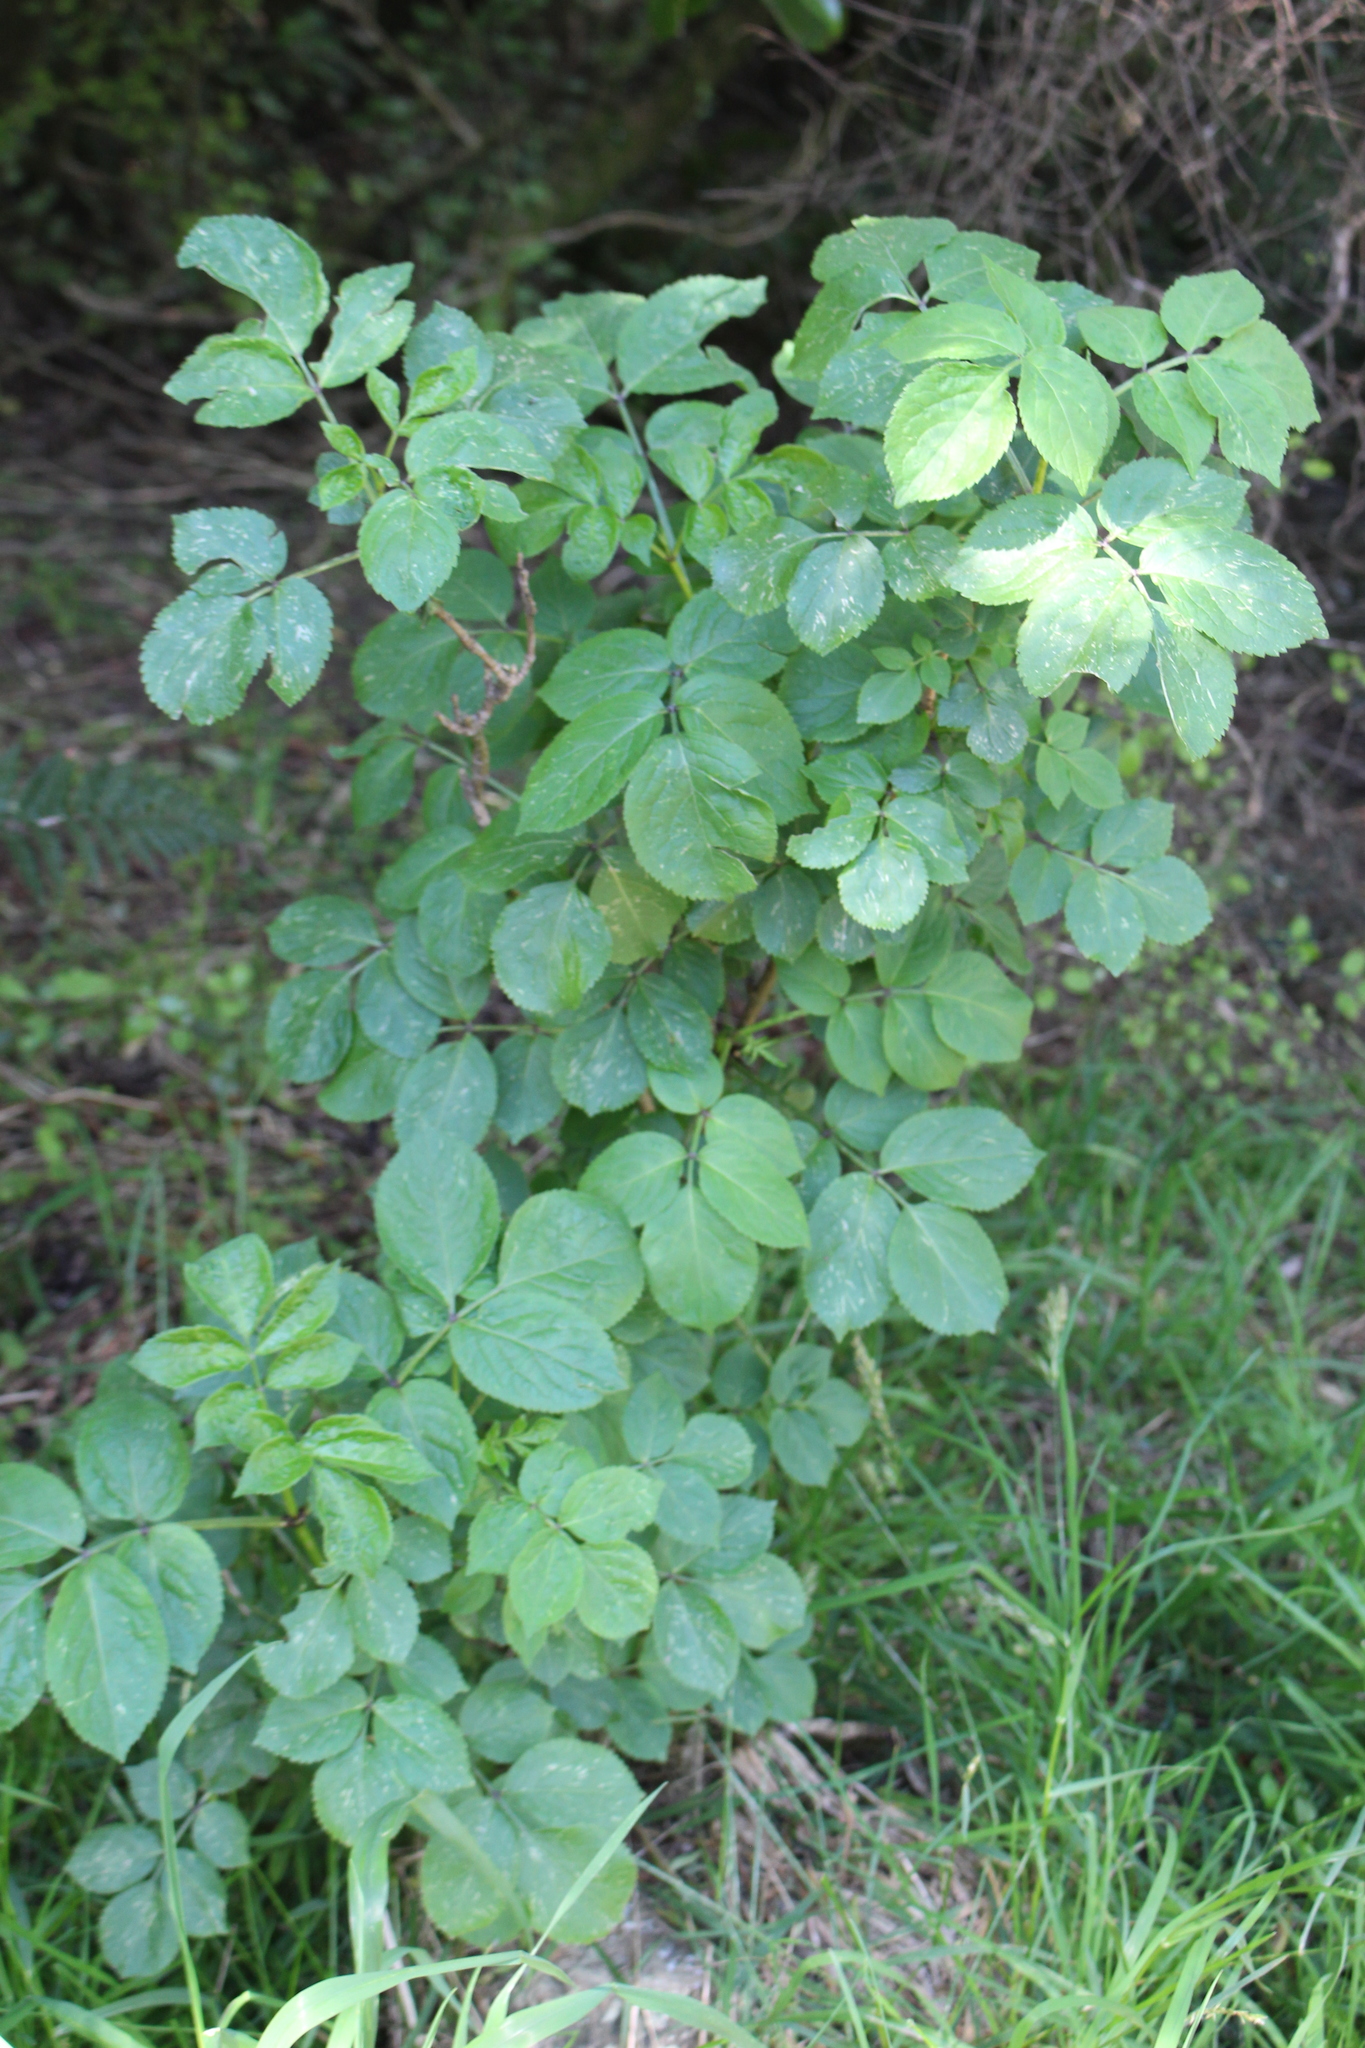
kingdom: Plantae
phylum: Tracheophyta
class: Magnoliopsida
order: Dipsacales
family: Viburnaceae
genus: Sambucus
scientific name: Sambucus nigra
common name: Elder
